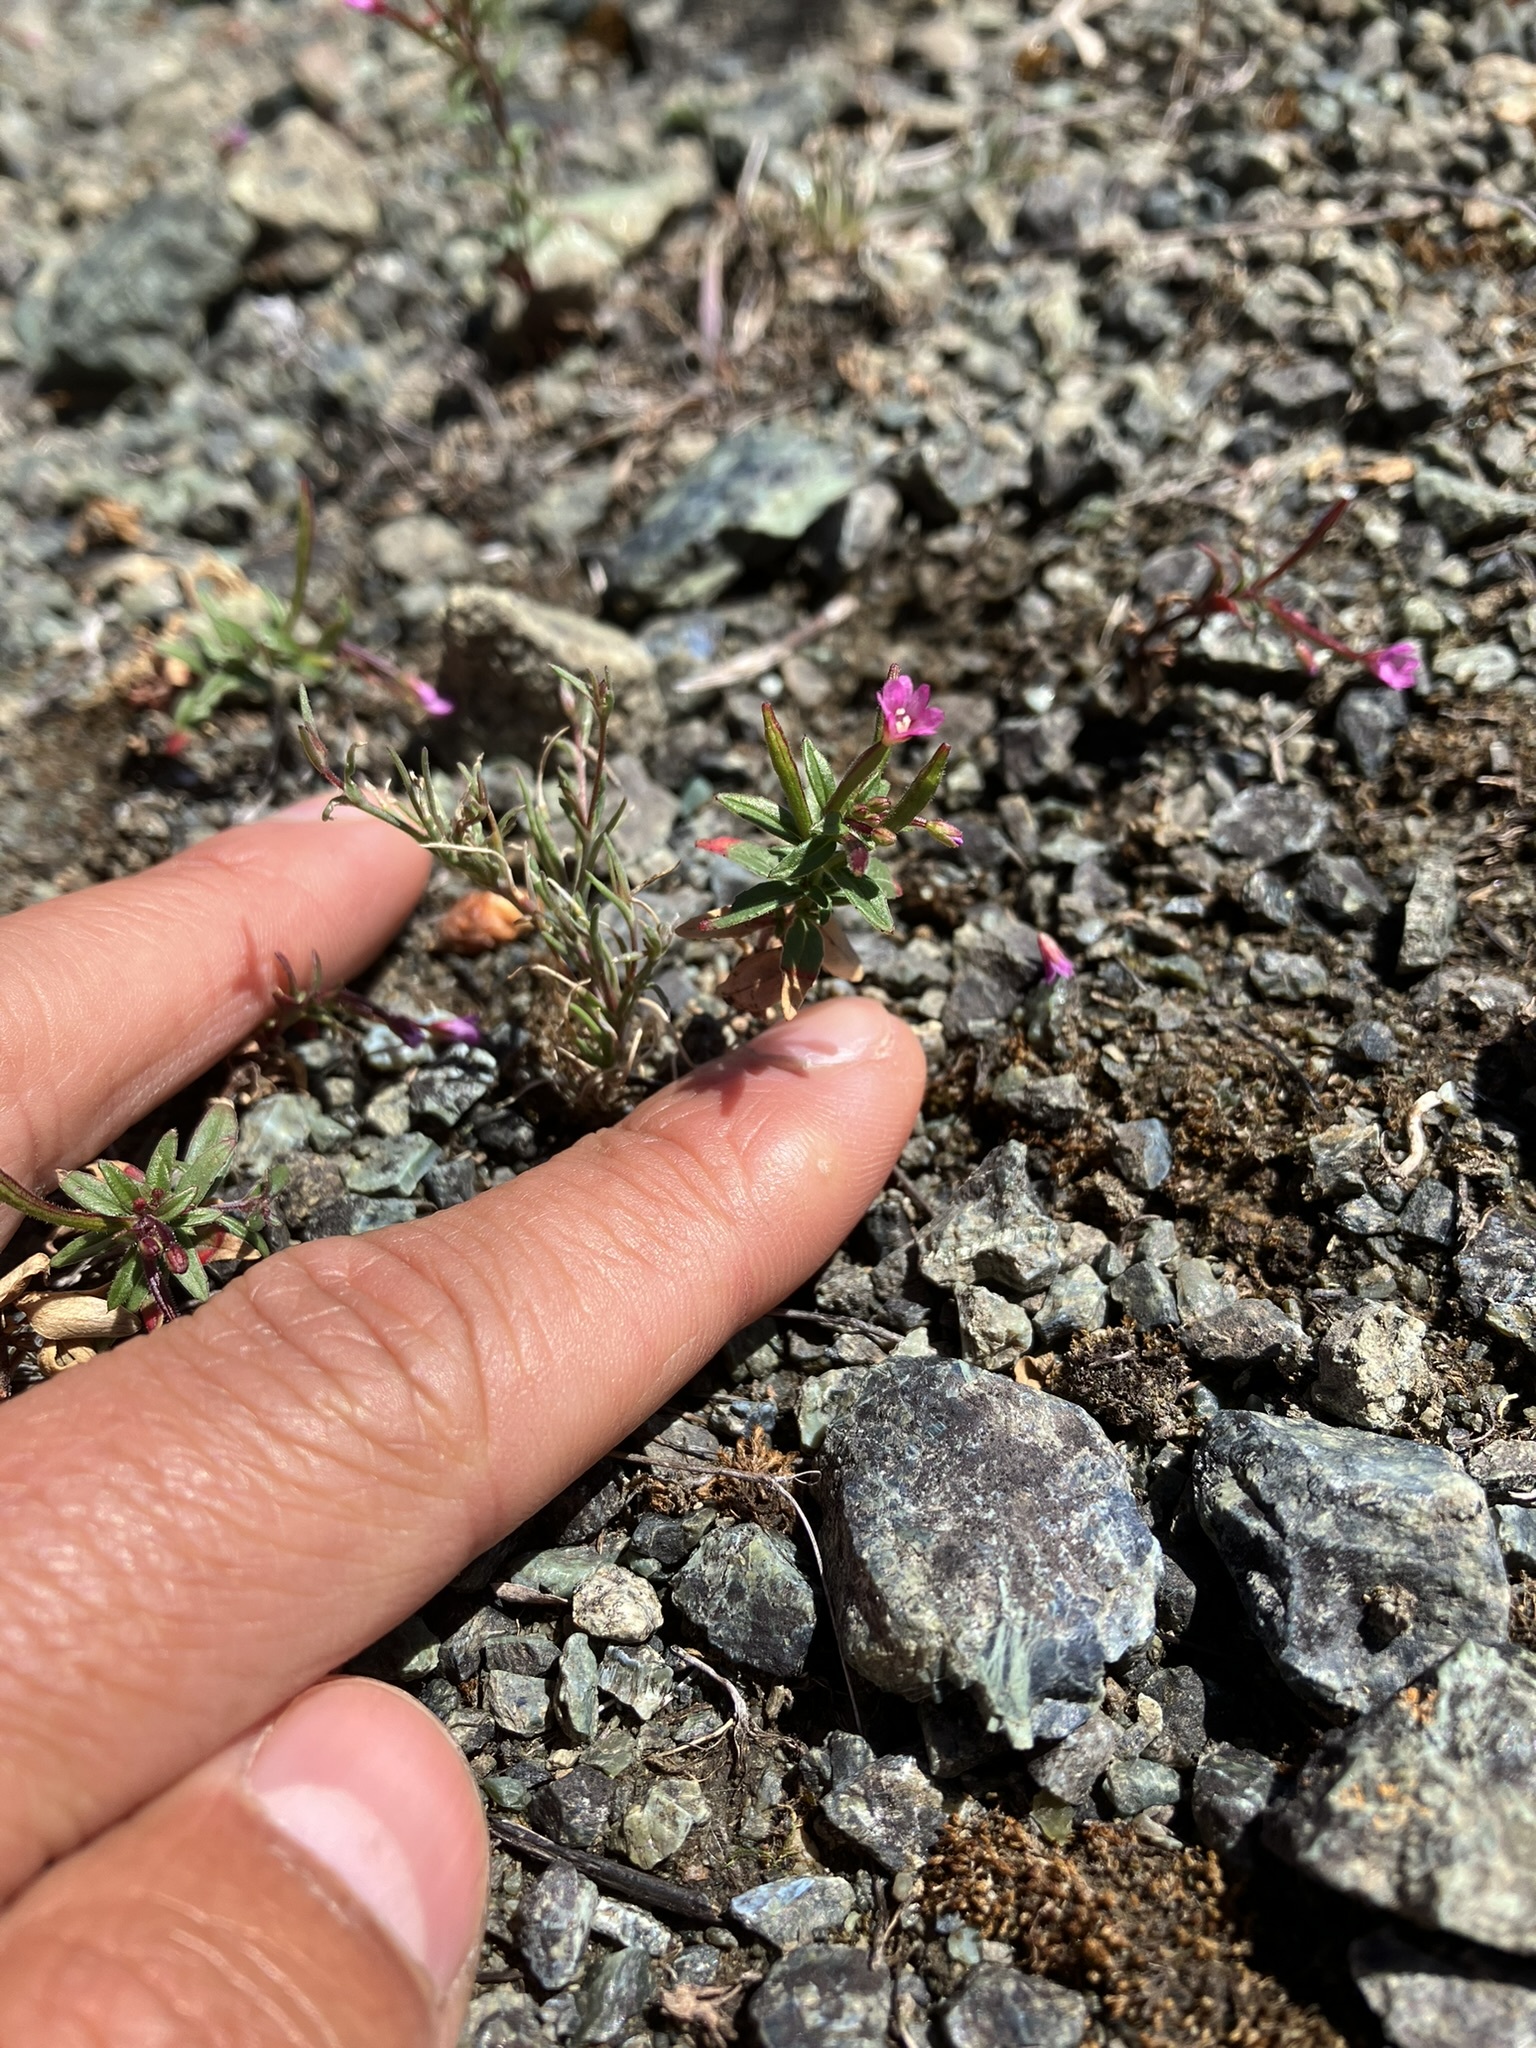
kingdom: Plantae
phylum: Tracheophyta
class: Magnoliopsida
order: Myrtales
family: Onagraceae
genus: Epilobium
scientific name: Epilobium minutum
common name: Chaparral willowherb
